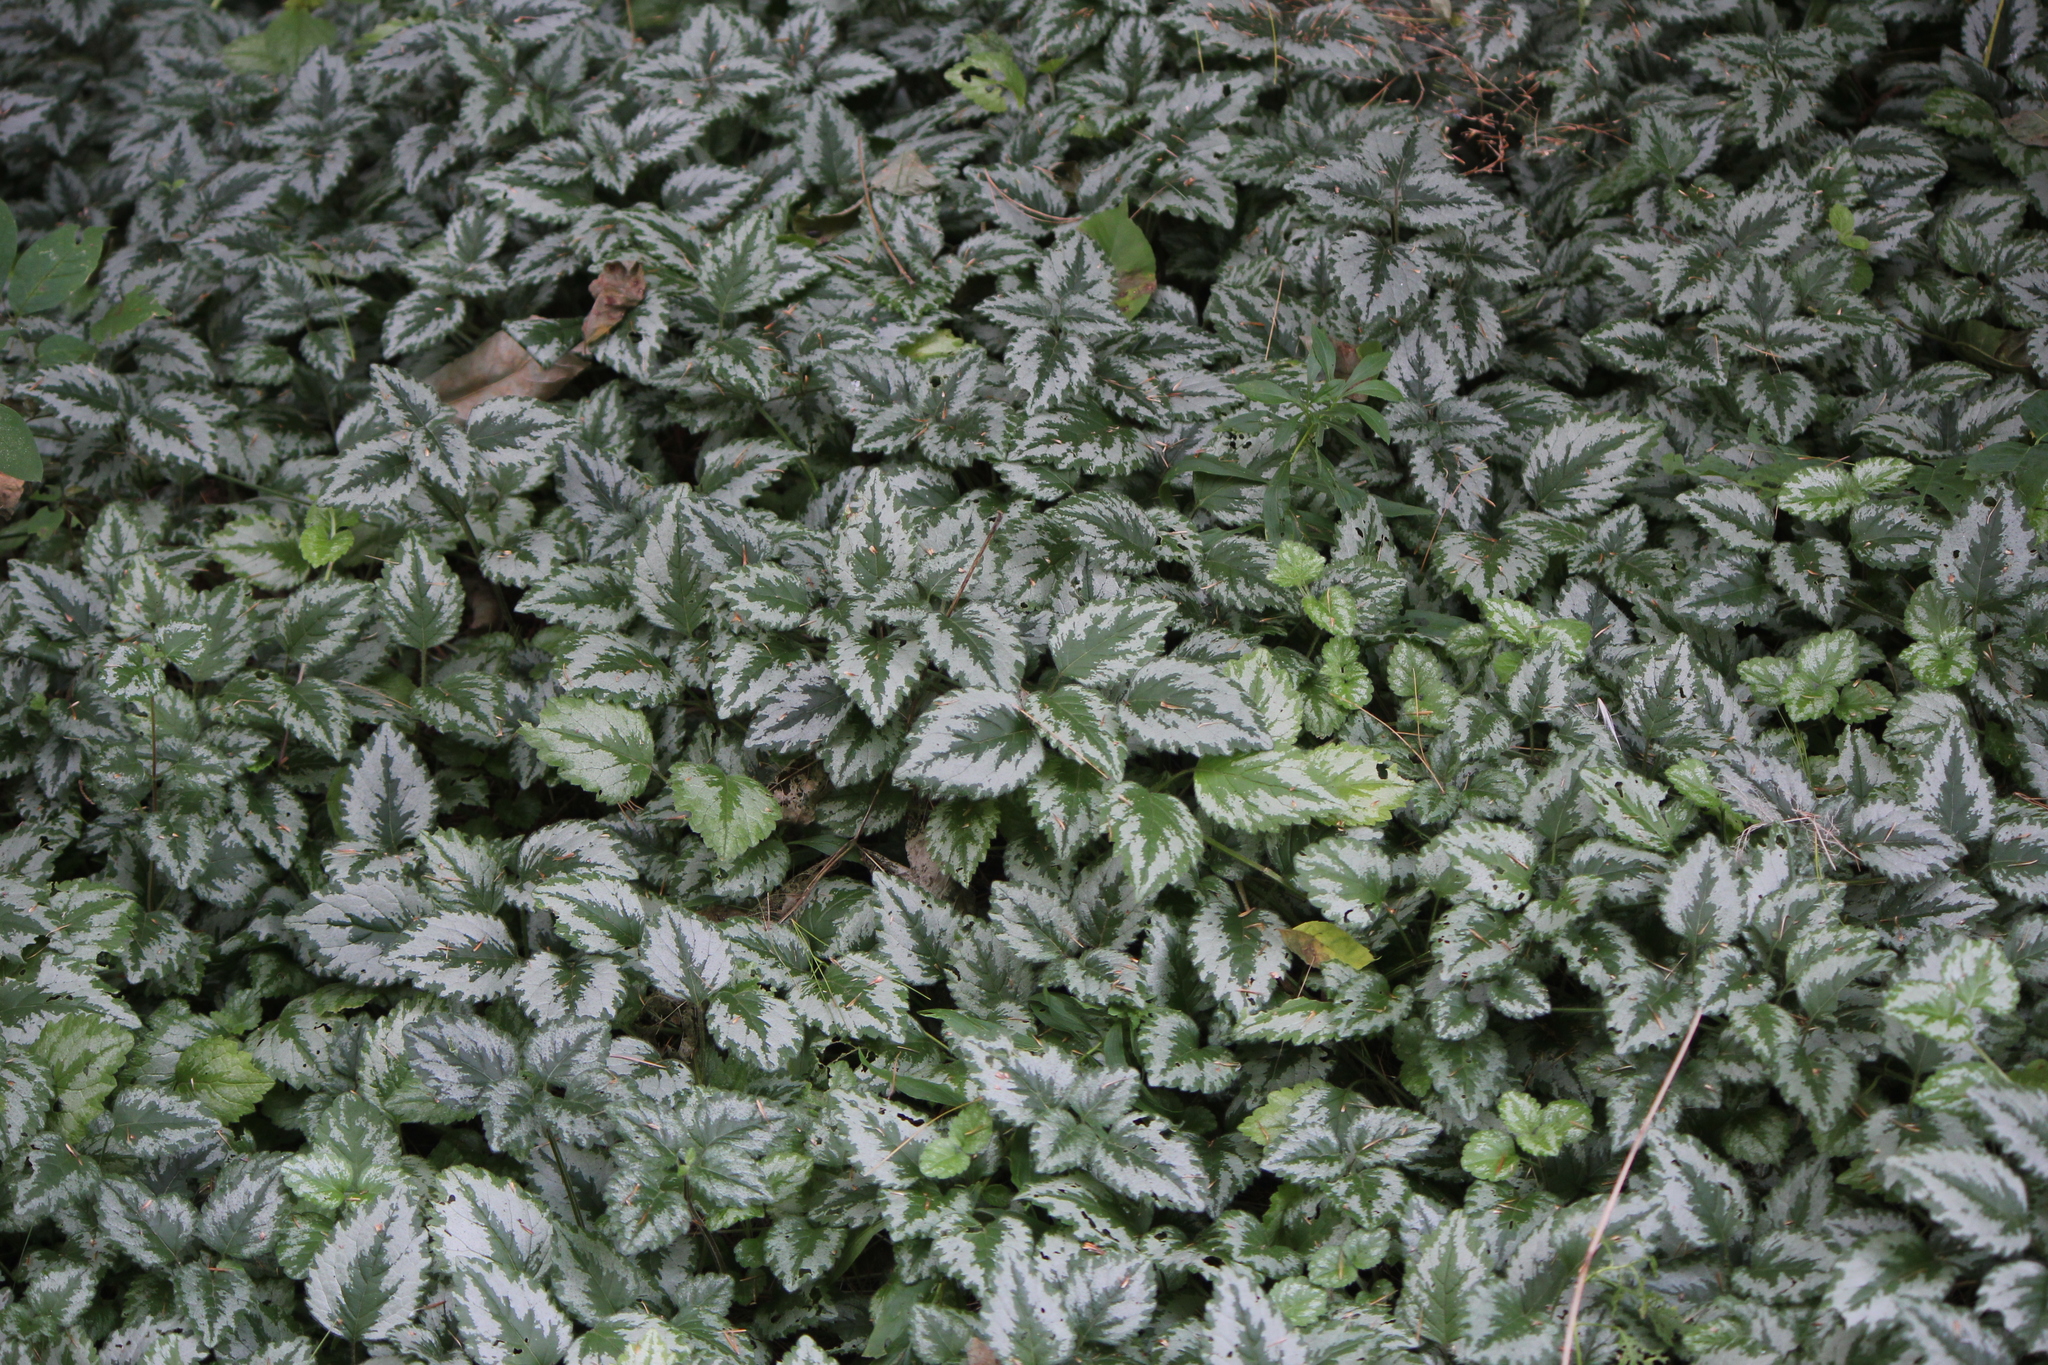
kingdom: Plantae
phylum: Tracheophyta
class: Magnoliopsida
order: Lamiales
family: Lamiaceae
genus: Lamium
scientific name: Lamium galeobdolon
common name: Yellow archangel
